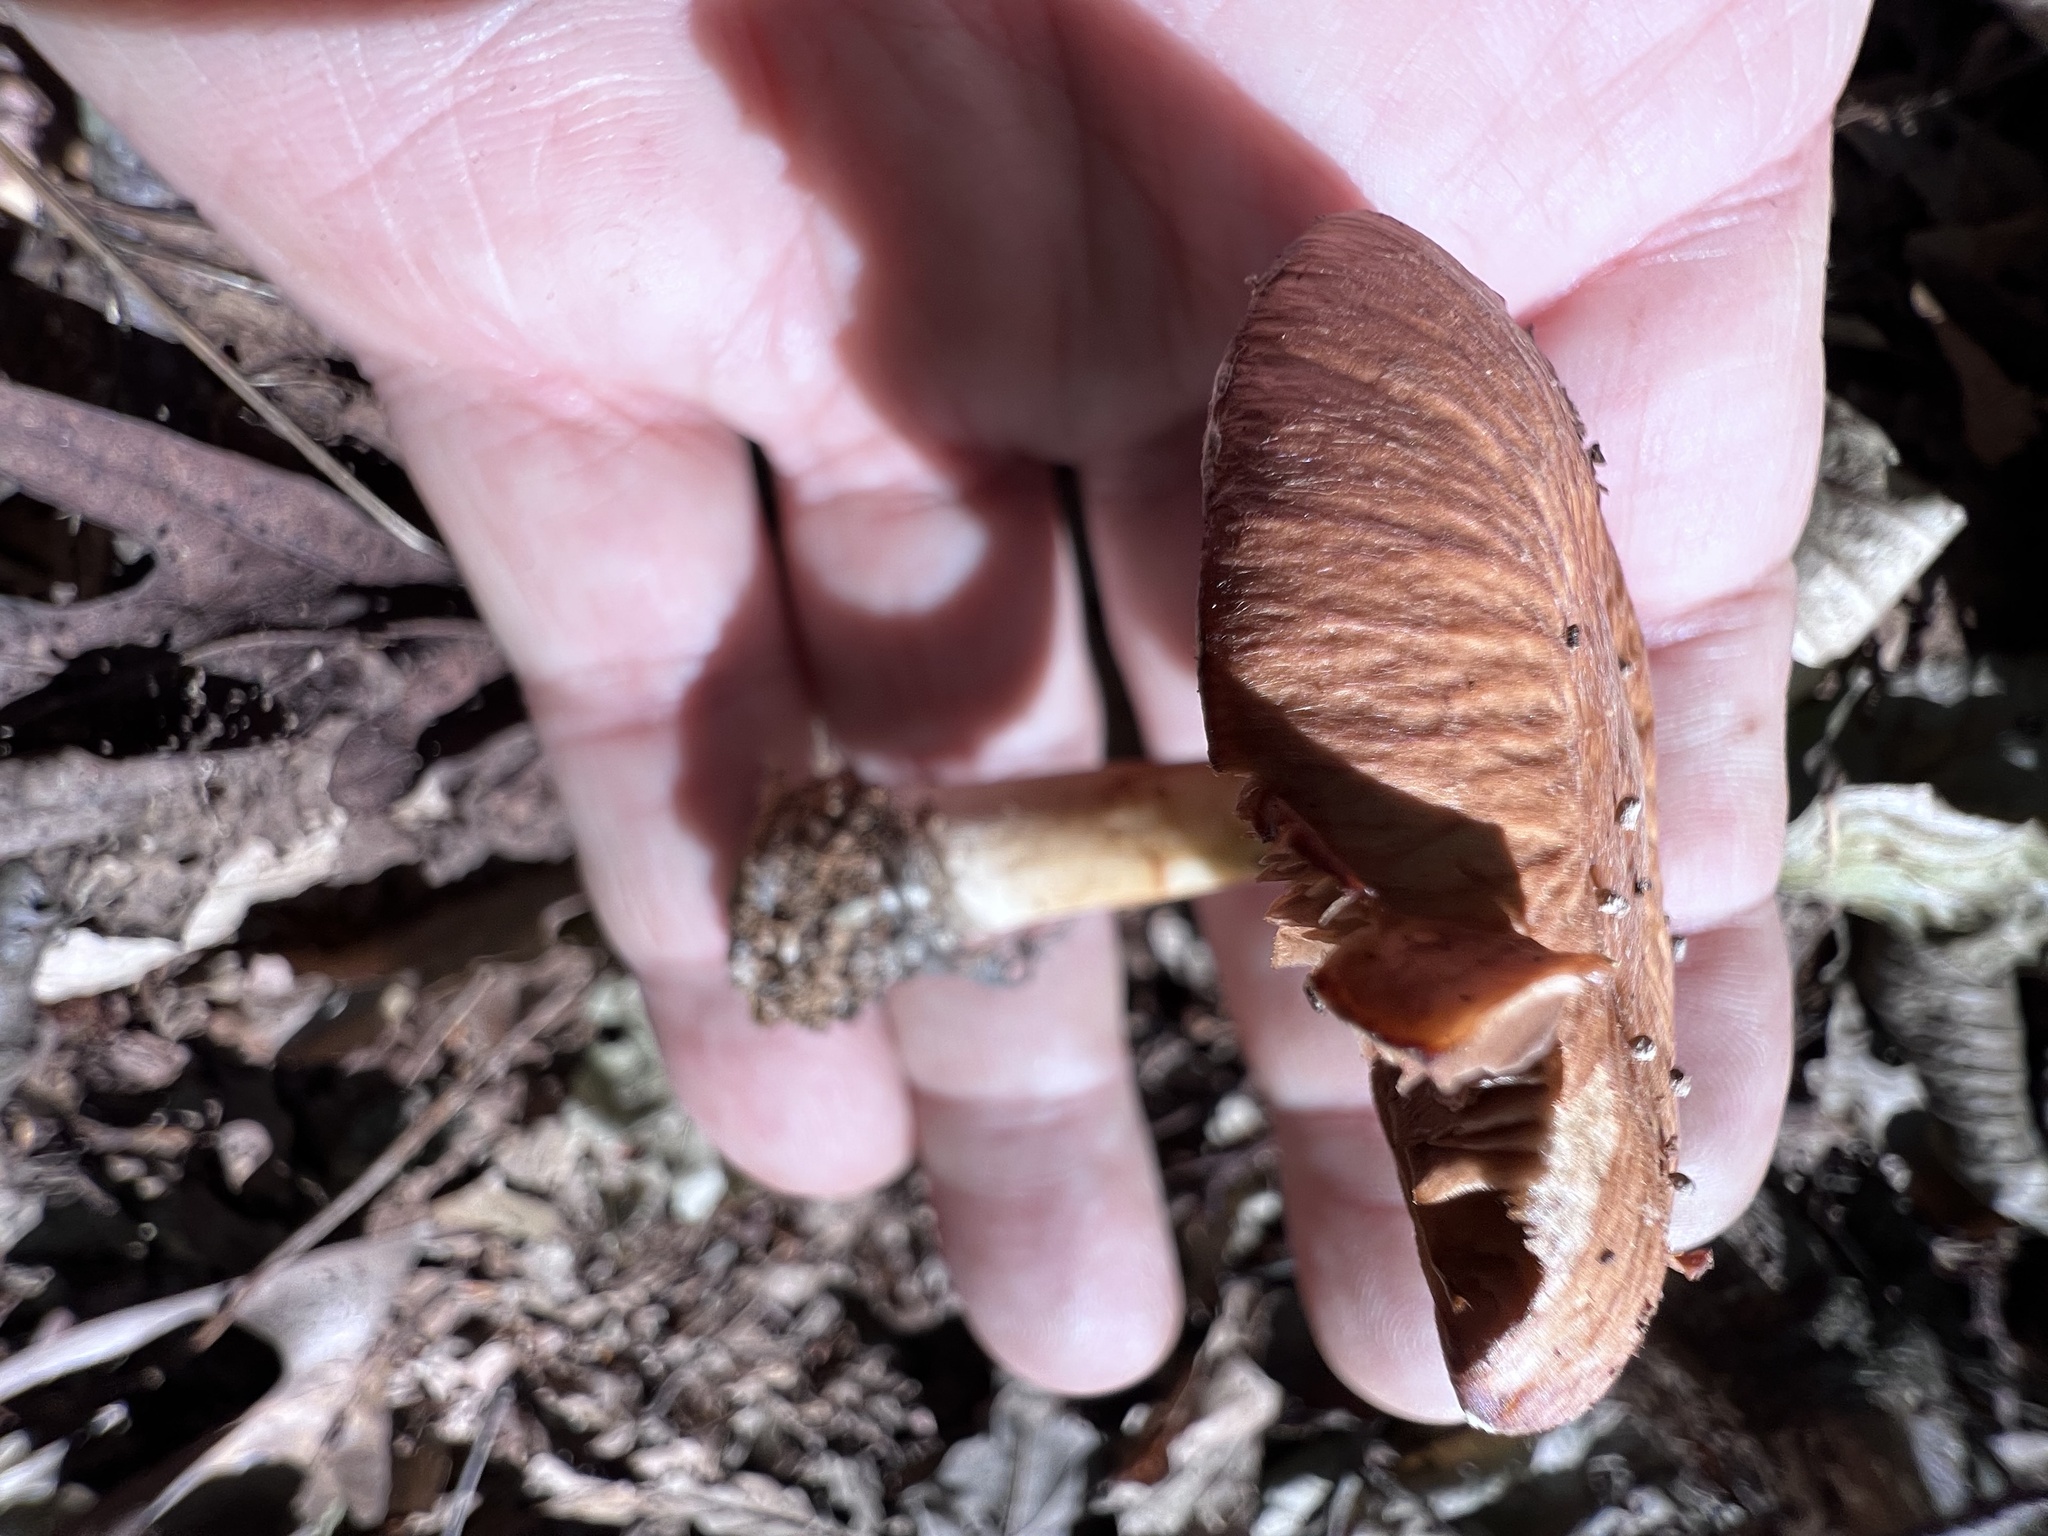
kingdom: Fungi
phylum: Basidiomycota
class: Agaricomycetes
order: Agaricales
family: Psathyrellaceae
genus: Typhrasa
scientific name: Typhrasa gossypina
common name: Wrinkled psathyrella
